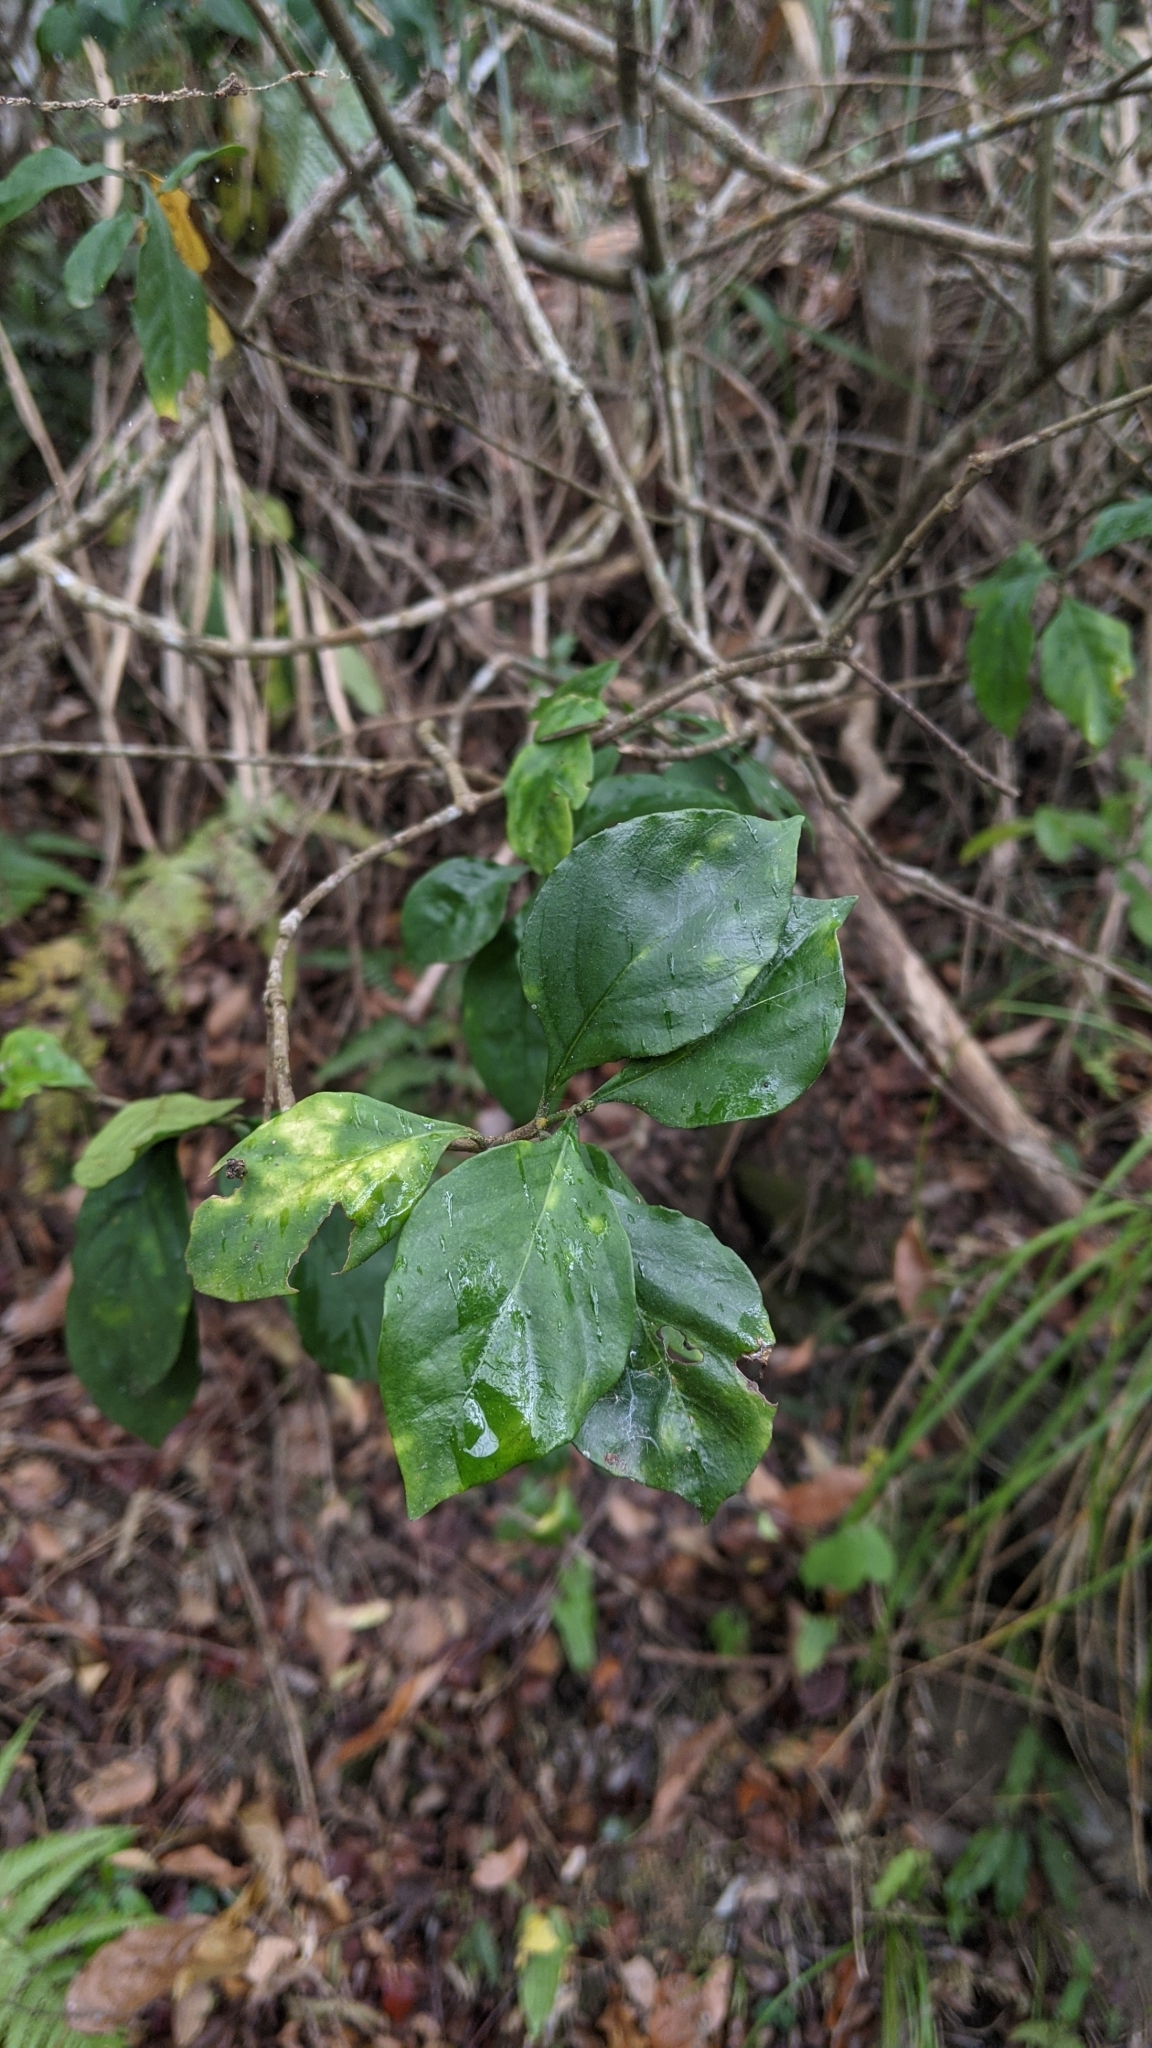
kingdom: Plantae
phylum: Tracheophyta
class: Magnoliopsida
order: Caryophyllales
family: Nyctaginaceae
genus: Pisonia
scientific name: Pisonia aculeata
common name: Cockspur vine
